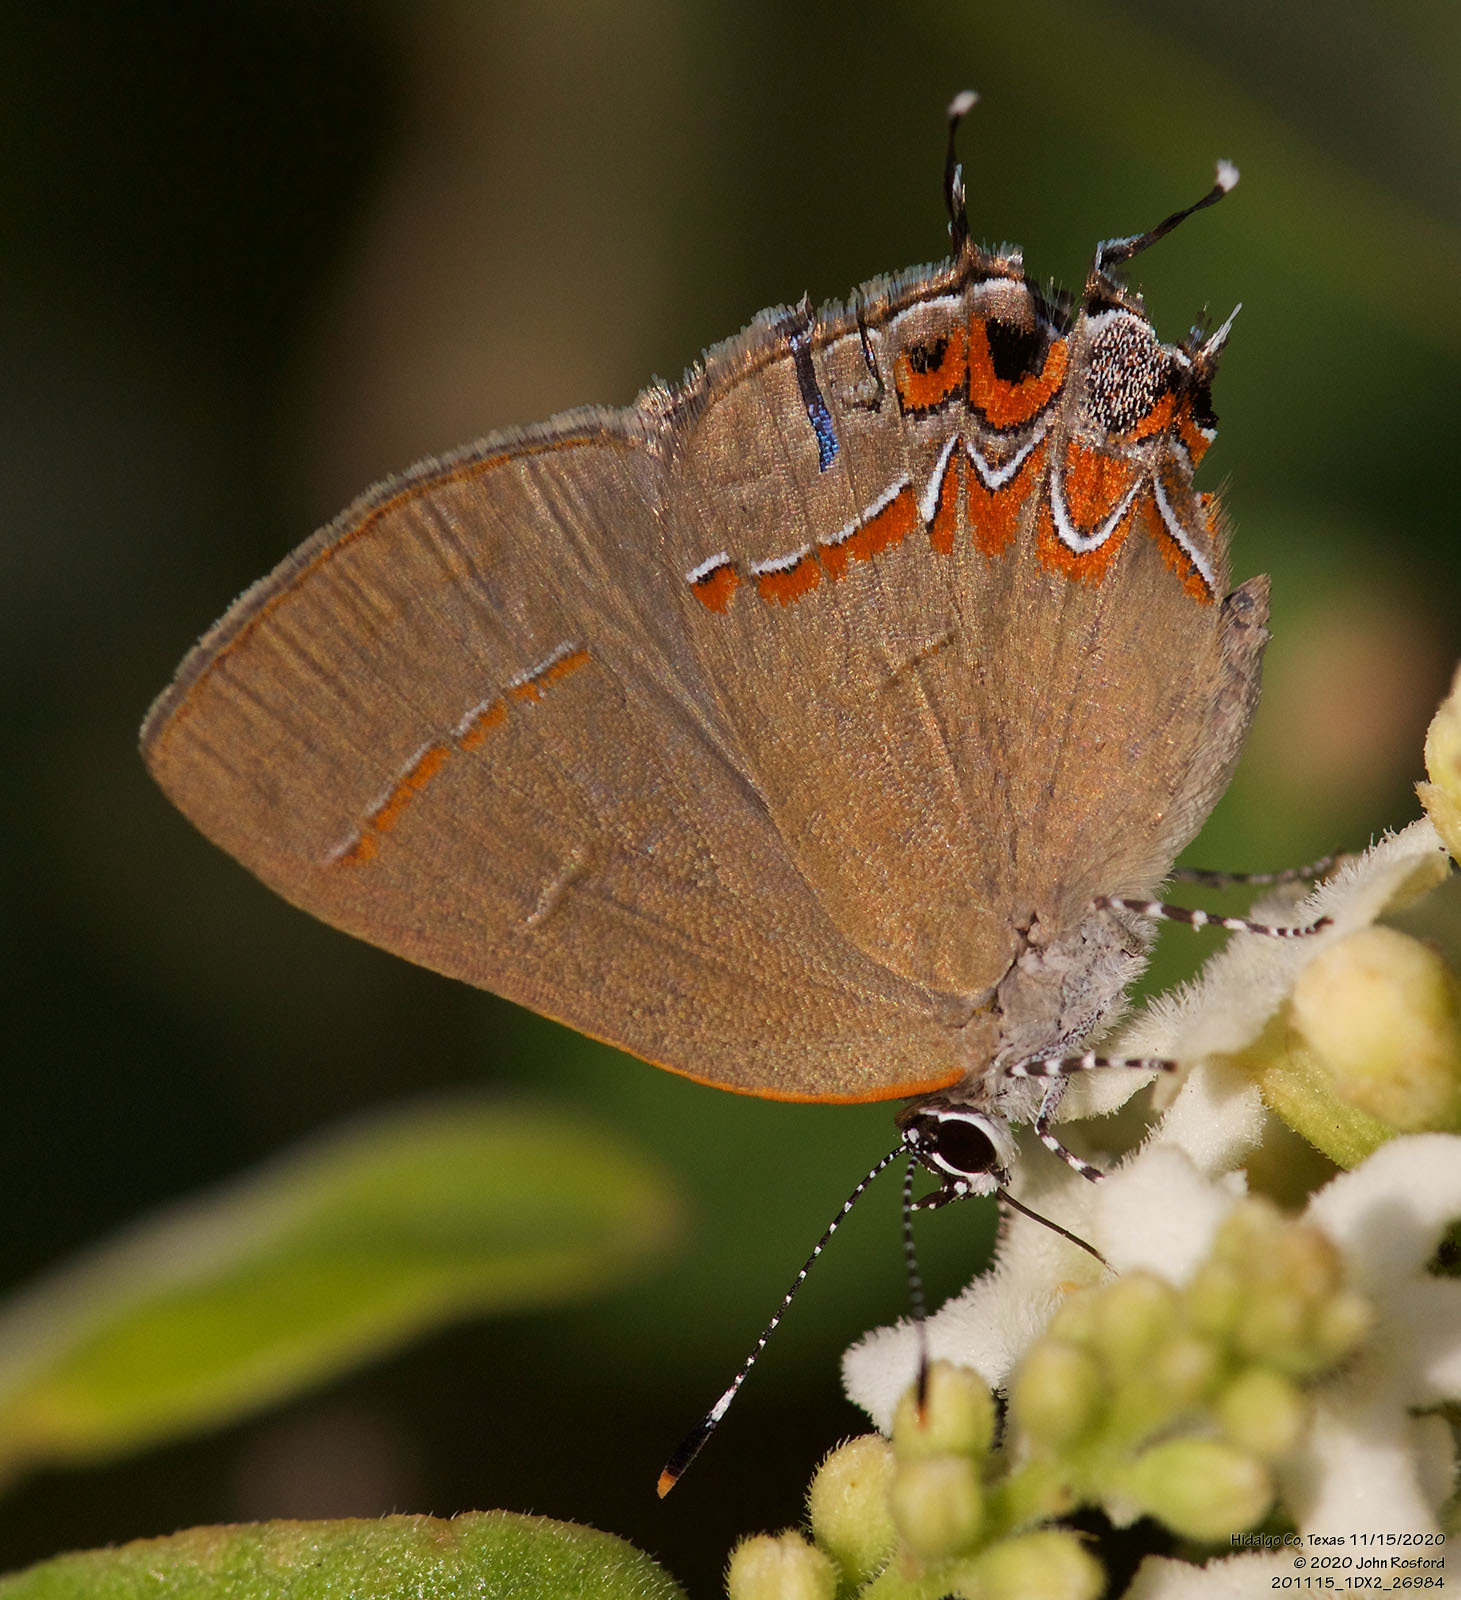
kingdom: Animalia
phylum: Arthropoda
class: Insecta
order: Lepidoptera
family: Lycaenidae
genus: Calycopis
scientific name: Calycopis isobeon
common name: Dusky-blue groundstreak
